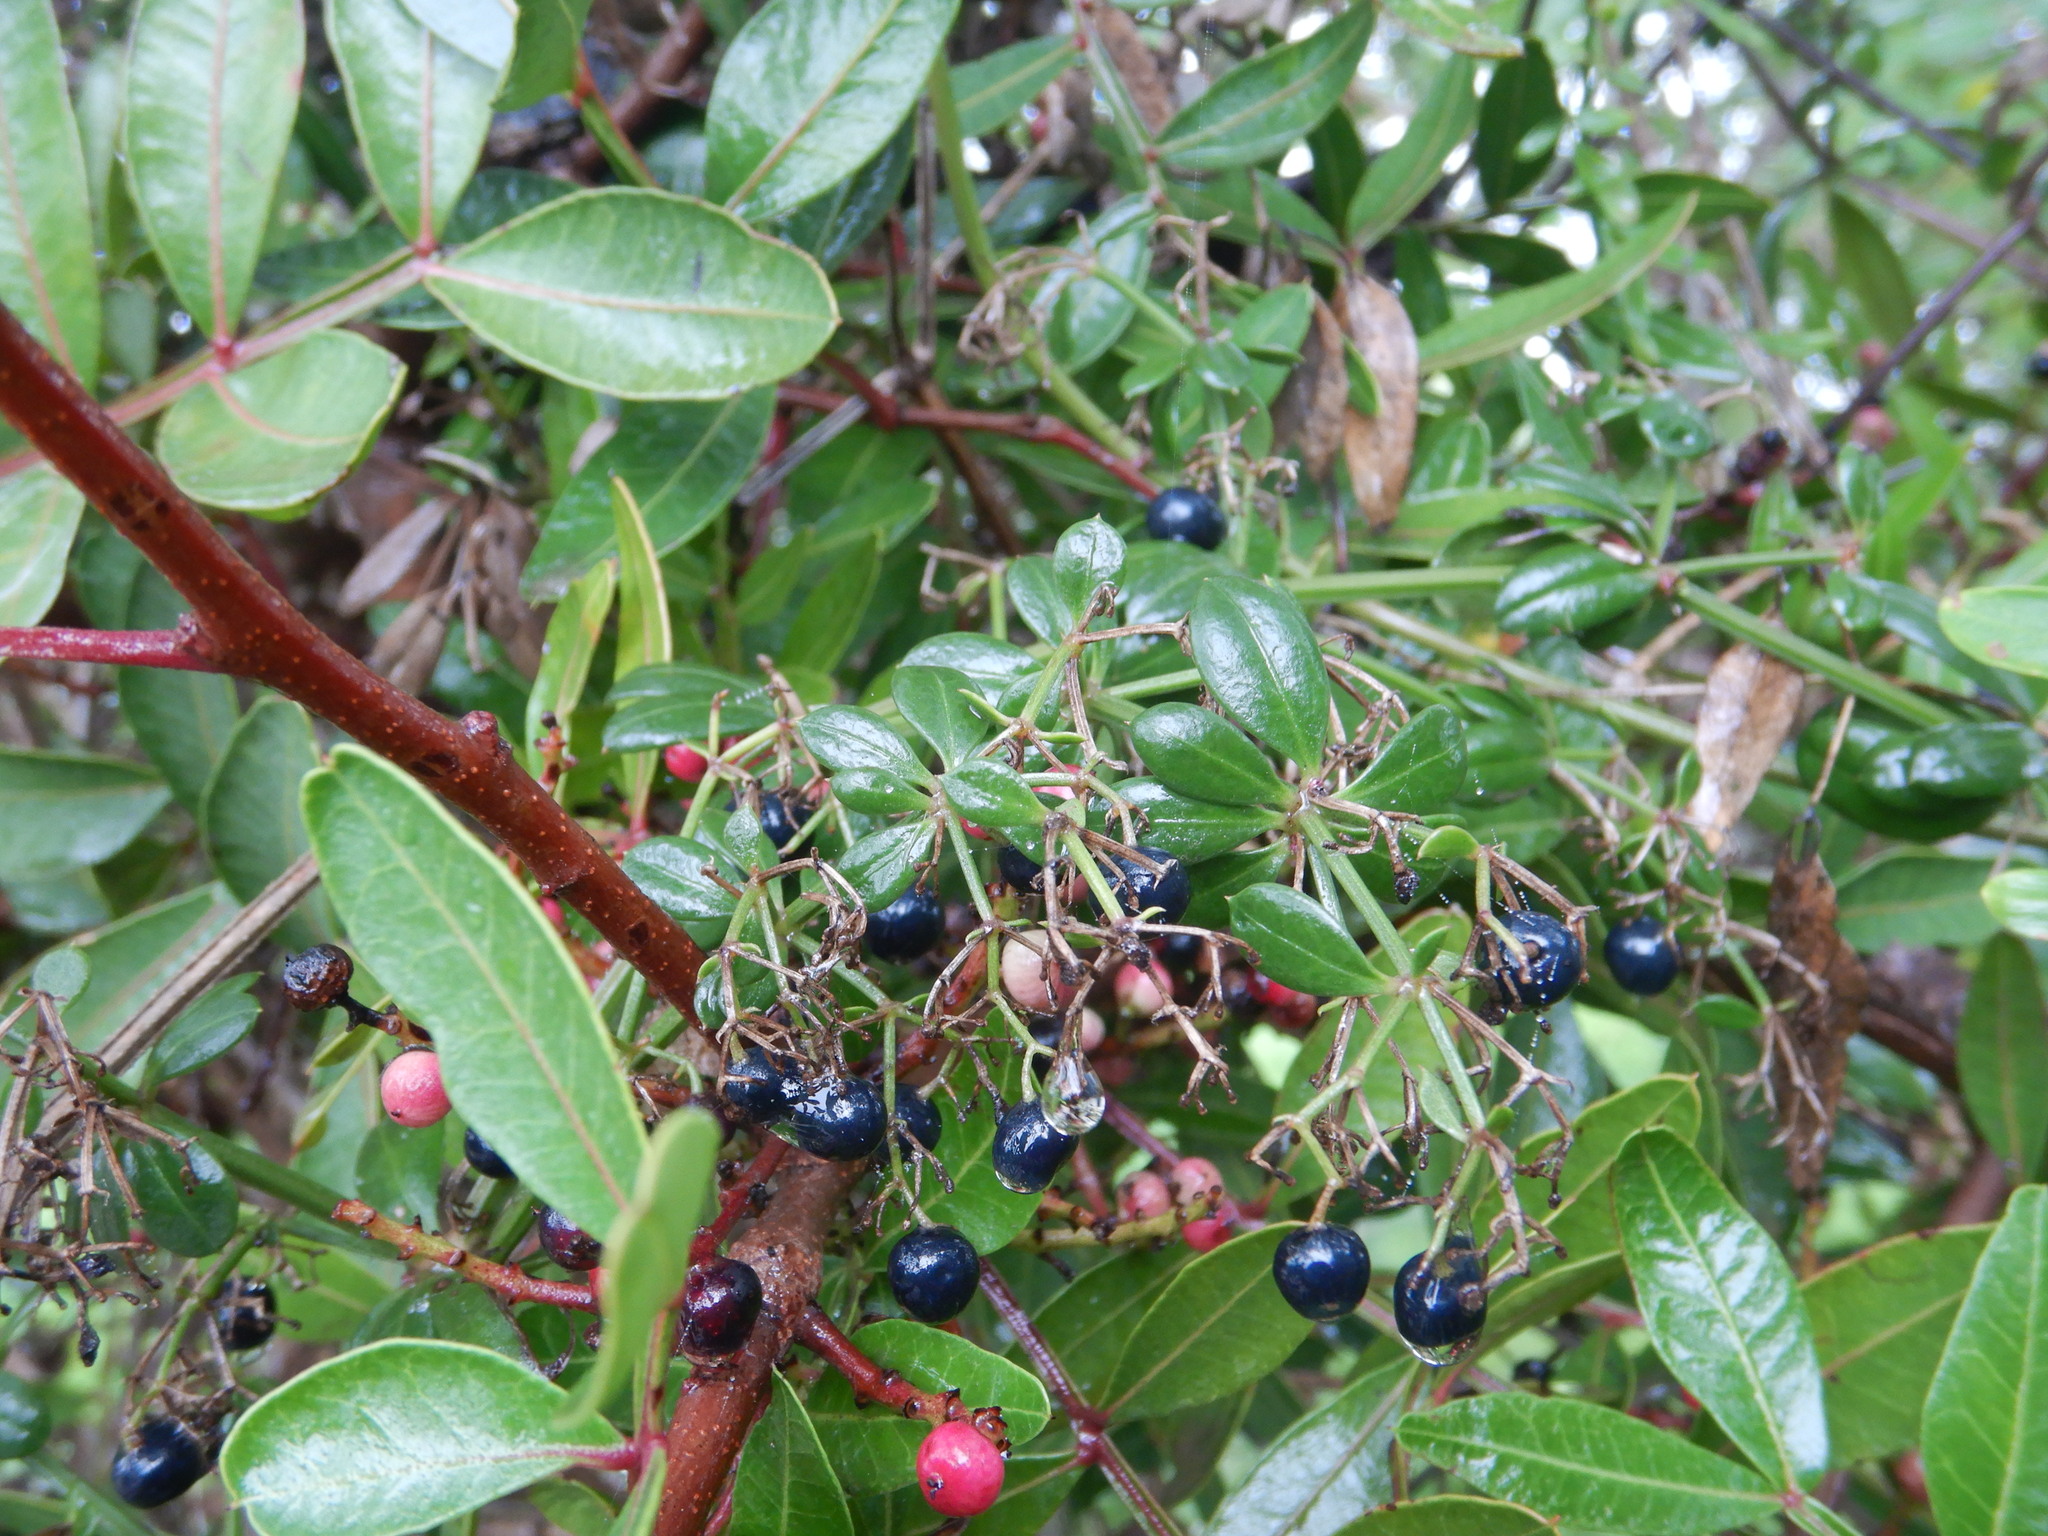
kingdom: Plantae
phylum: Tracheophyta
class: Magnoliopsida
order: Gentianales
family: Rubiaceae
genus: Rubia
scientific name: Rubia peregrina
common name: Wild madder
